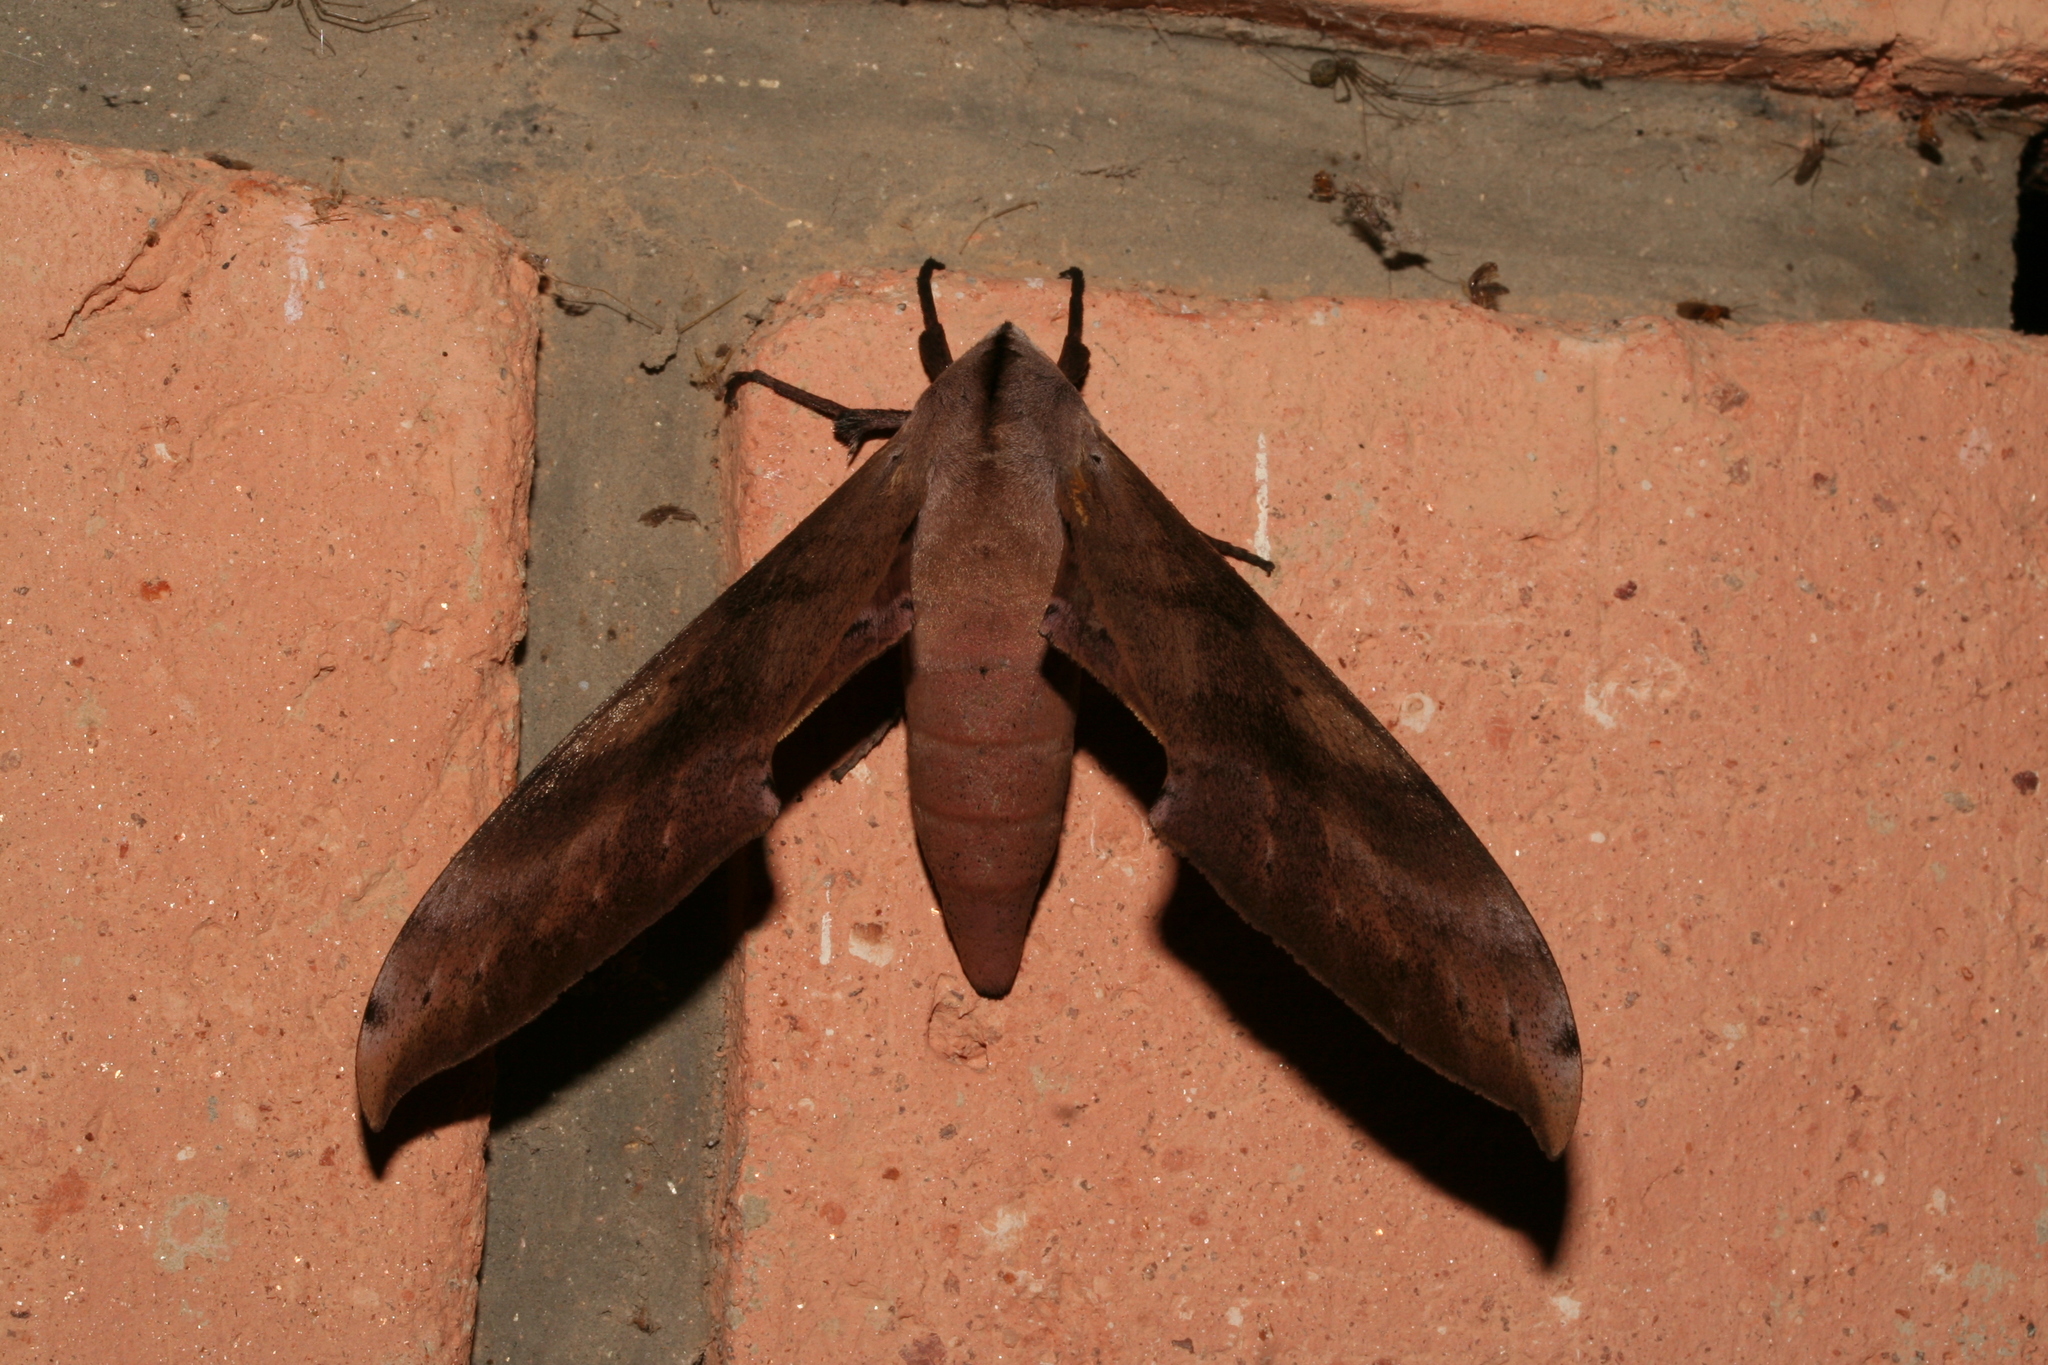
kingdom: Animalia
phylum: Arthropoda
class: Insecta
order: Lepidoptera
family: Sphingidae
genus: Dargeclanis
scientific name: Dargeclanis grandidieri
